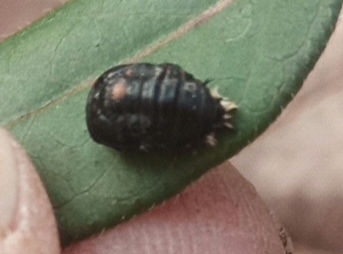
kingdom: Animalia
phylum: Arthropoda
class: Insecta
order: Coleoptera
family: Coccinellidae
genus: Harmonia
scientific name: Harmonia axyridis
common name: Harlequin ladybird
